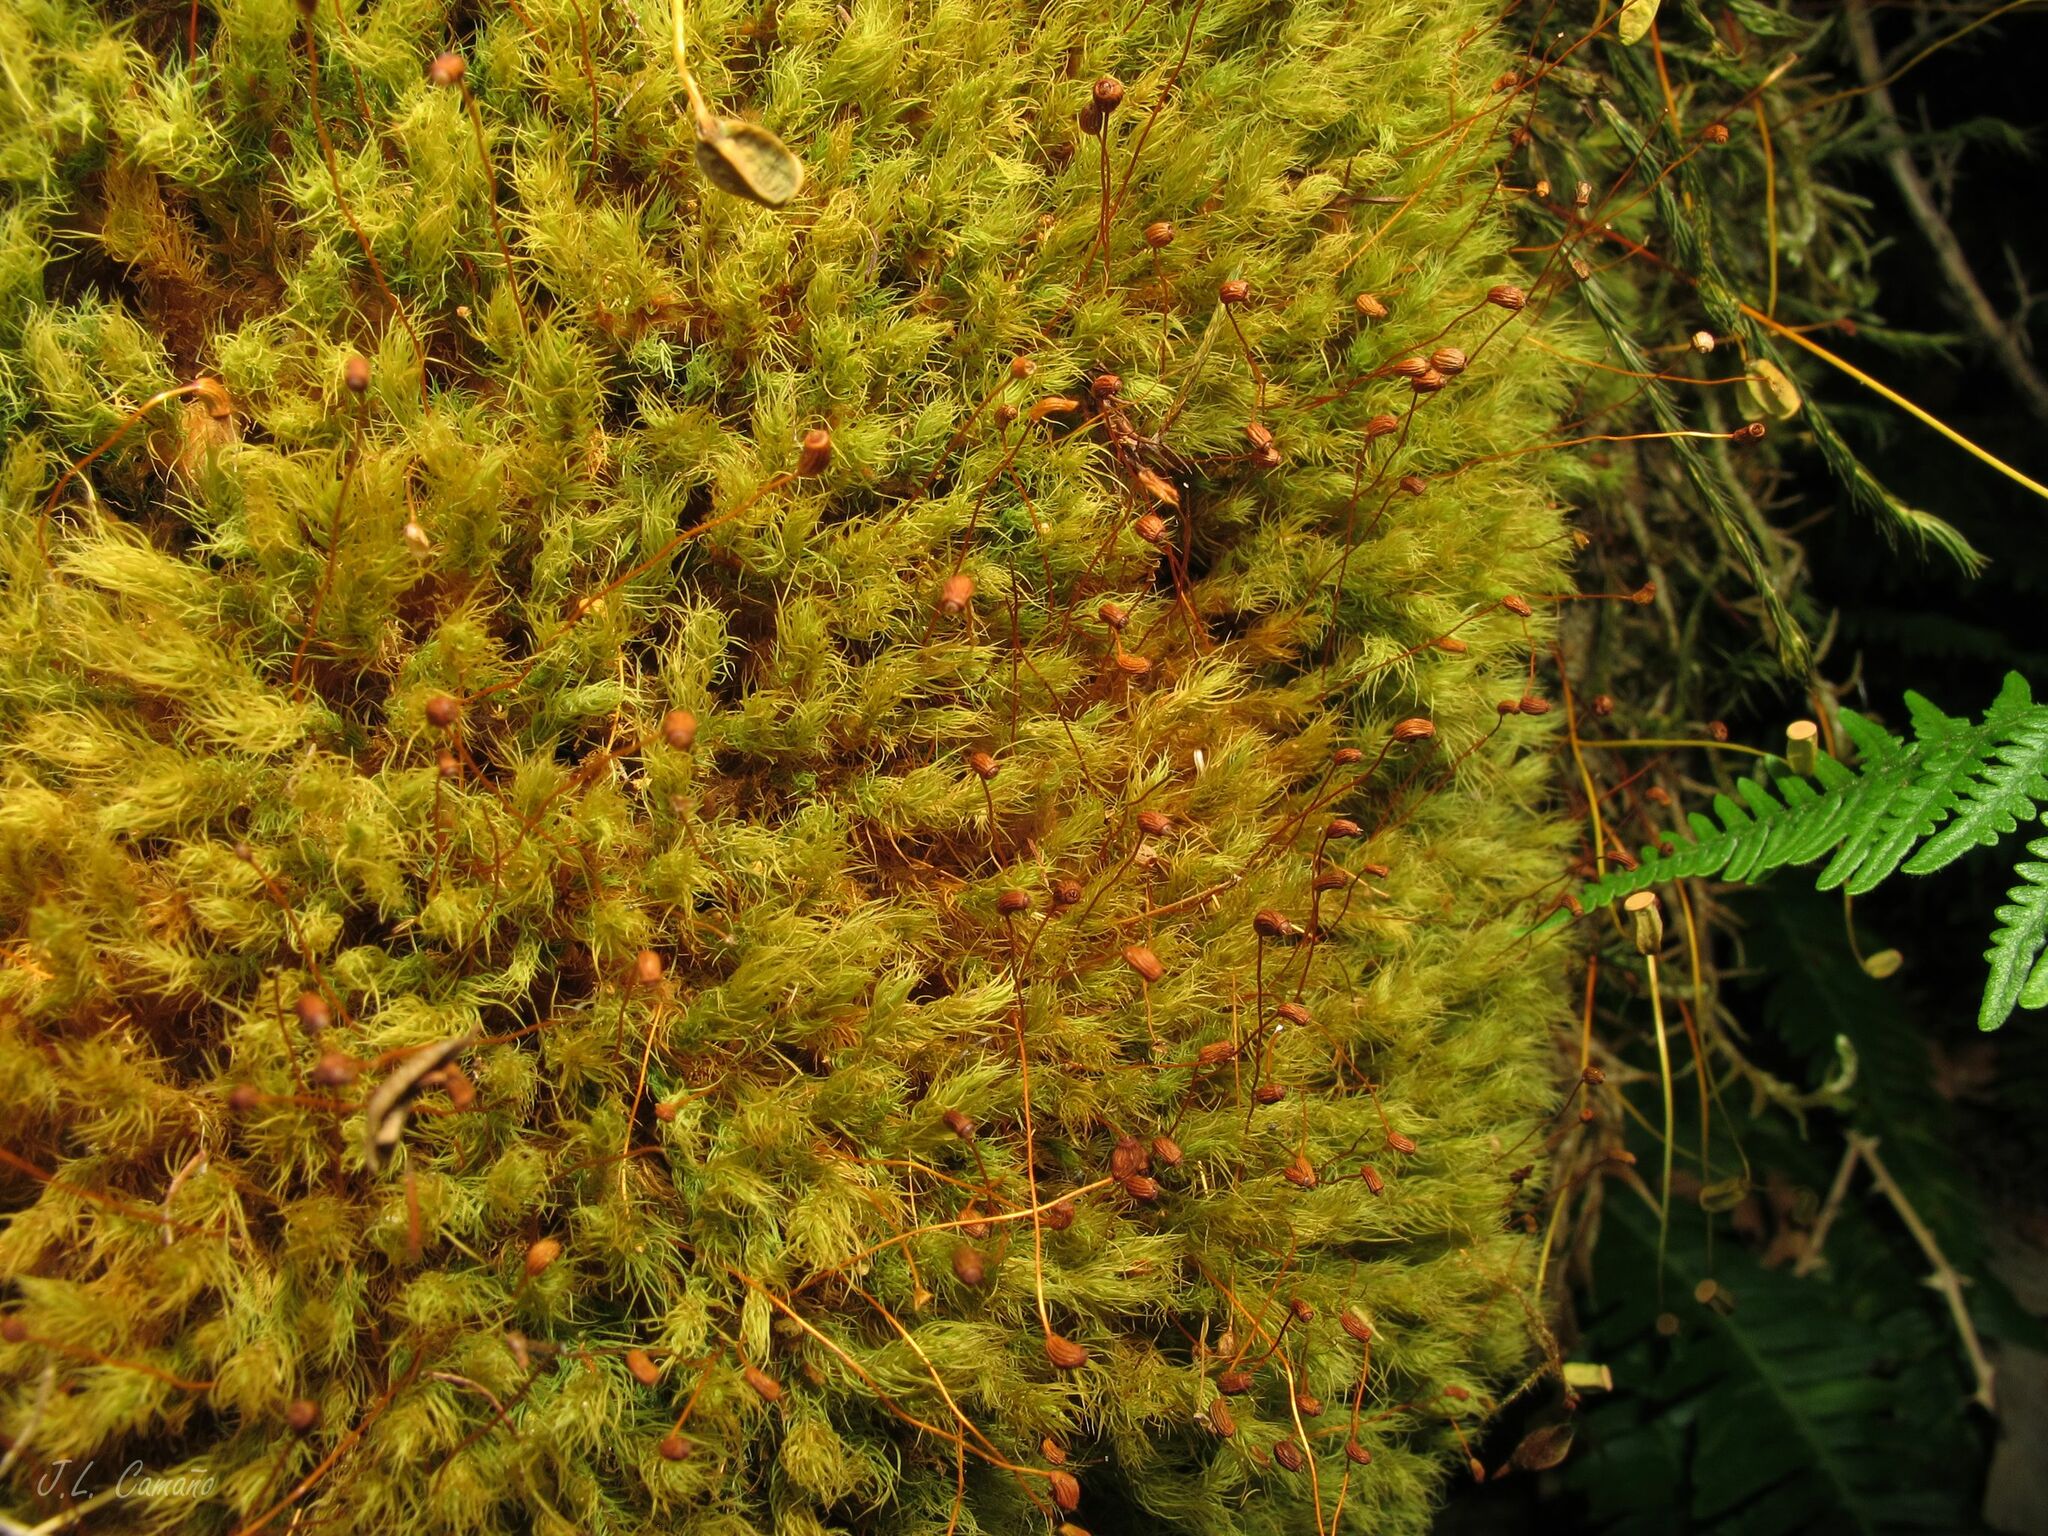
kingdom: Plantae
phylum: Bryophyta
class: Bryopsida
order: Bartramiales
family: Bartramiaceae
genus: Bartramia
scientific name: Bartramia ithyphylla
